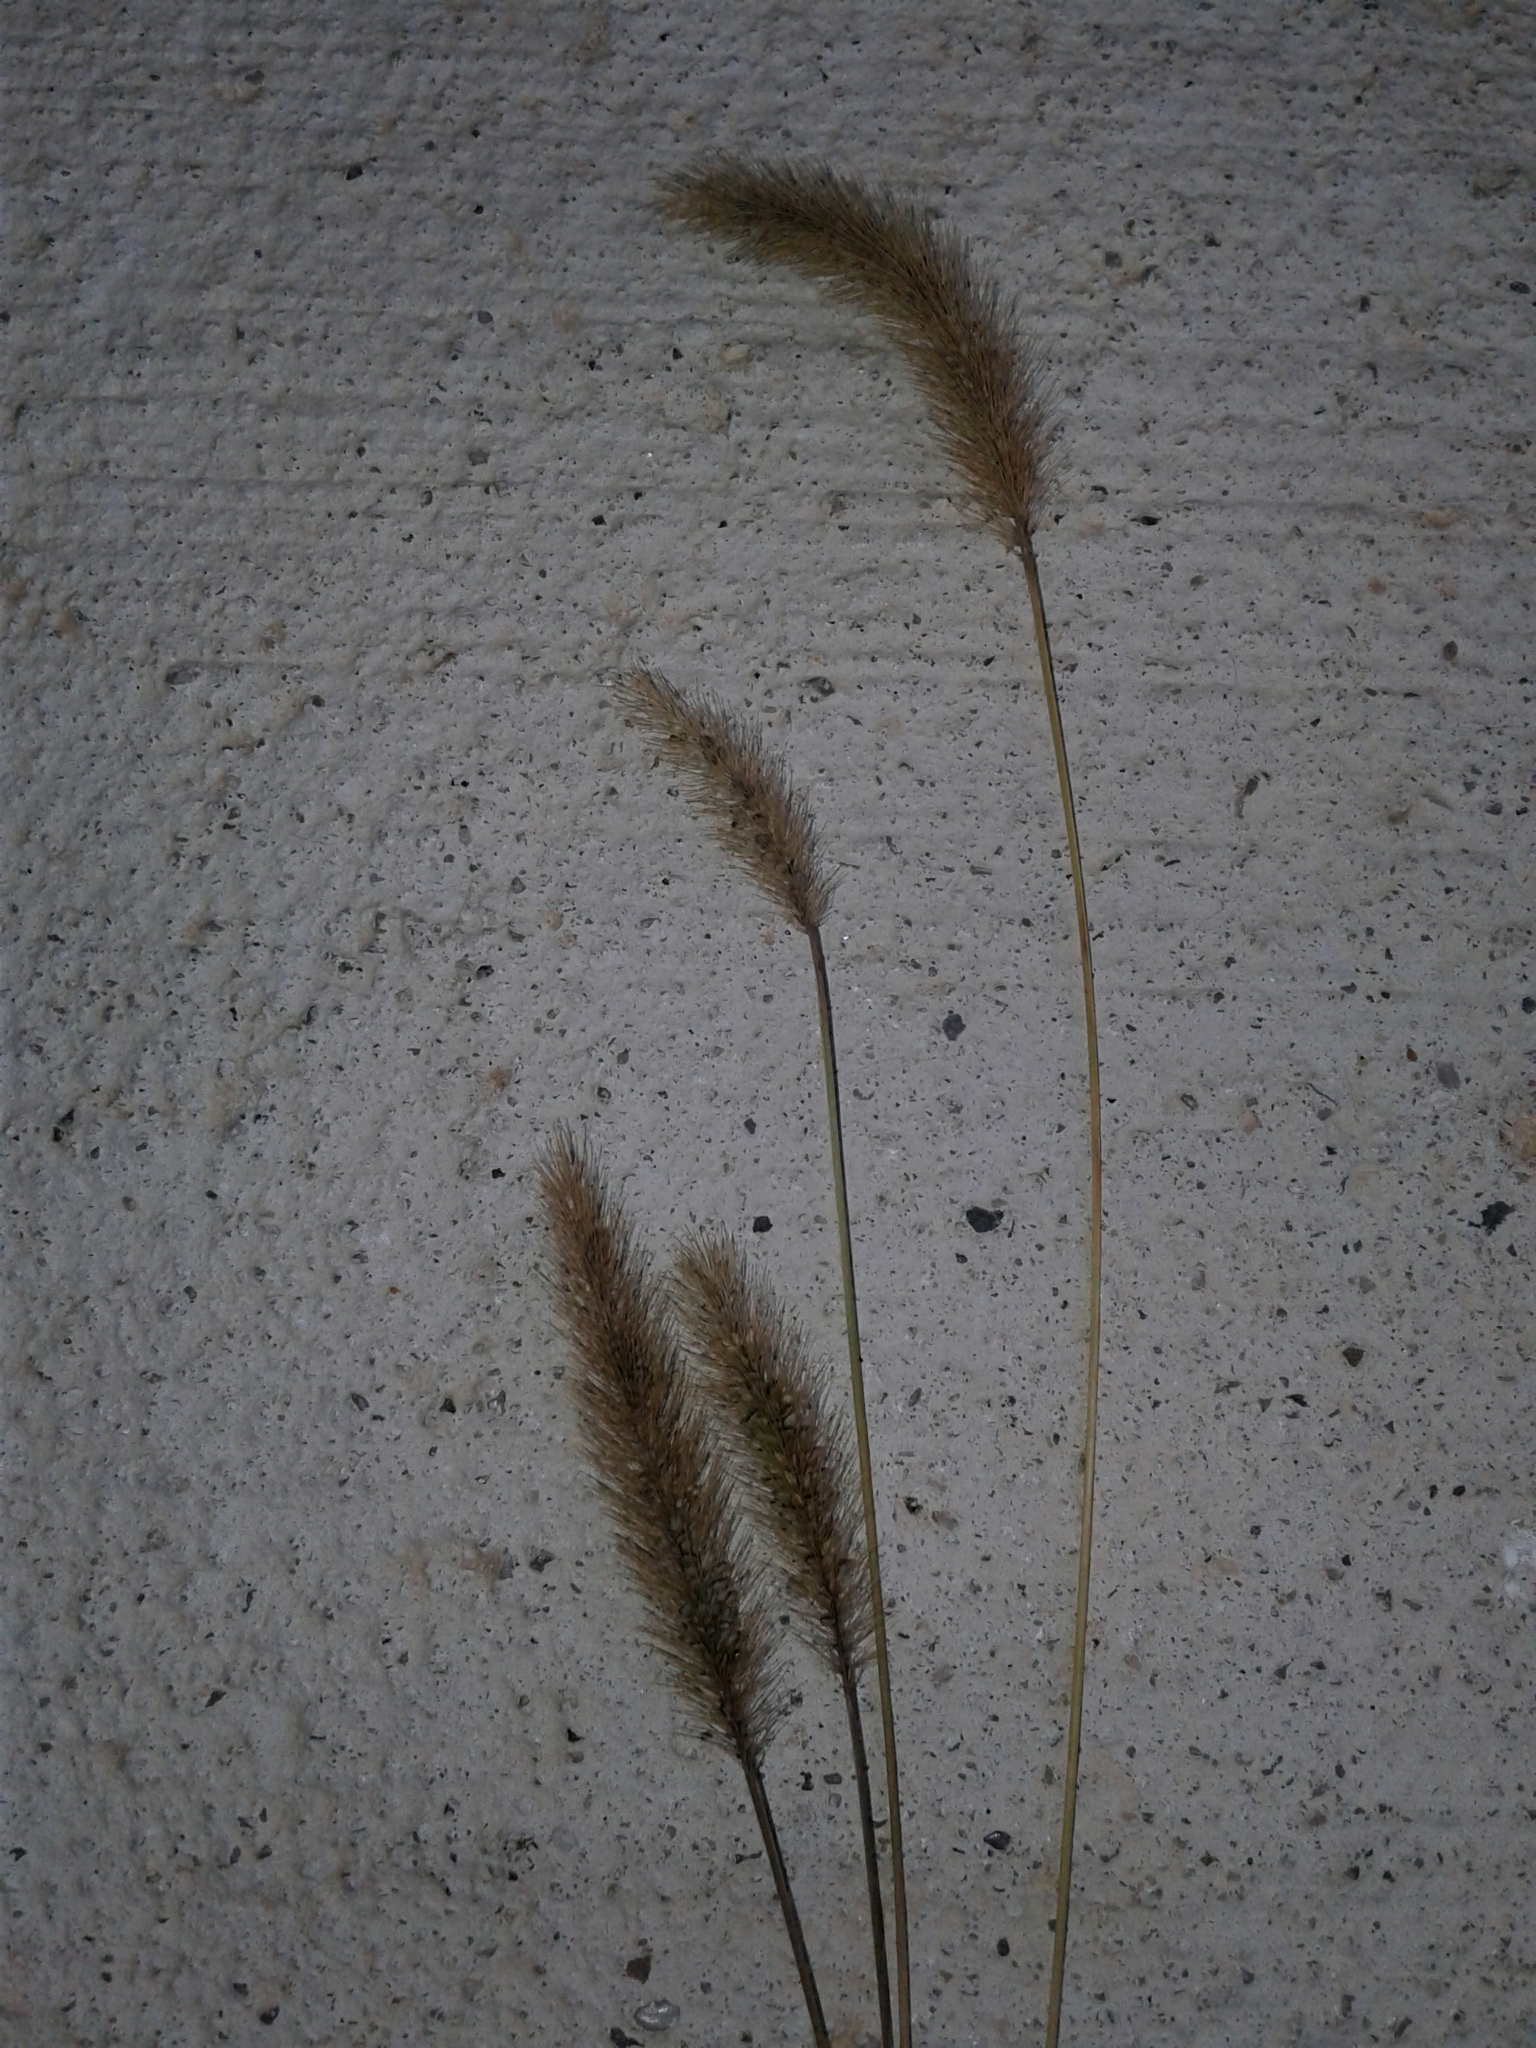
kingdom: Plantae
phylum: Tracheophyta
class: Liliopsida
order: Poales
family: Poaceae
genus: Setaria
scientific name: Setaria viridis
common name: Green bristlegrass
